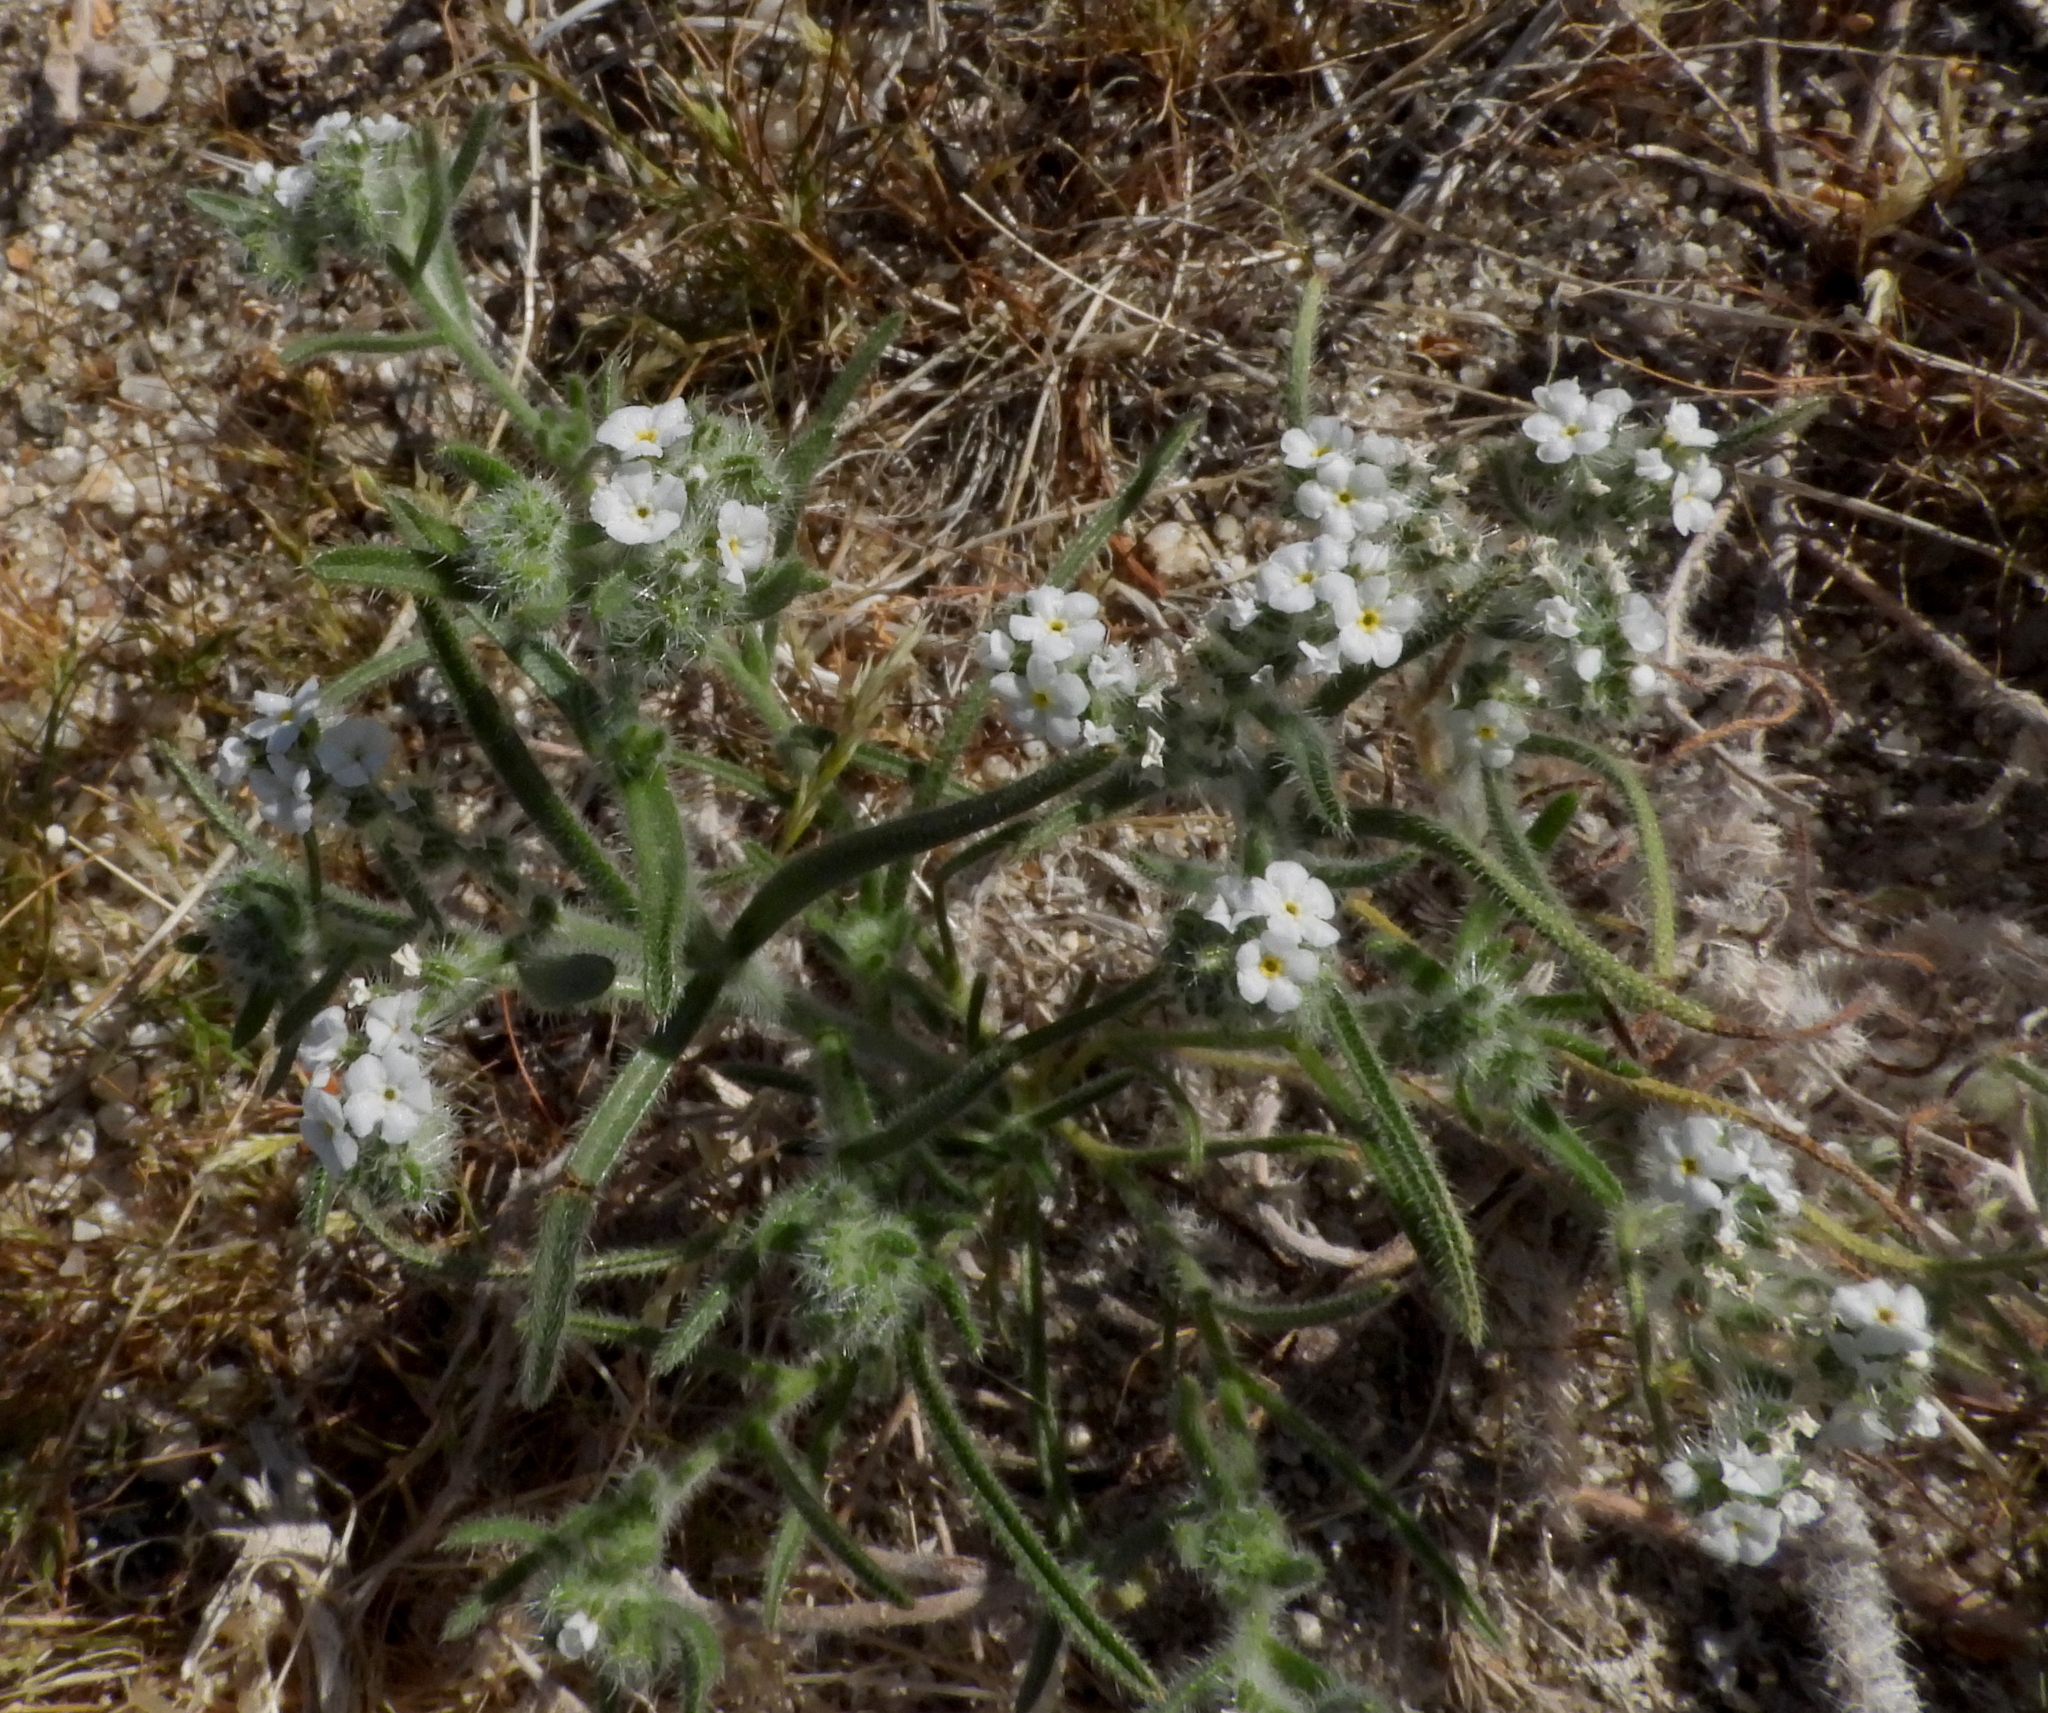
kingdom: Plantae
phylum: Tracheophyta
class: Magnoliopsida
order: Boraginales
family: Boraginaceae
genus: Johnstonella
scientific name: Johnstonella angustifolia
